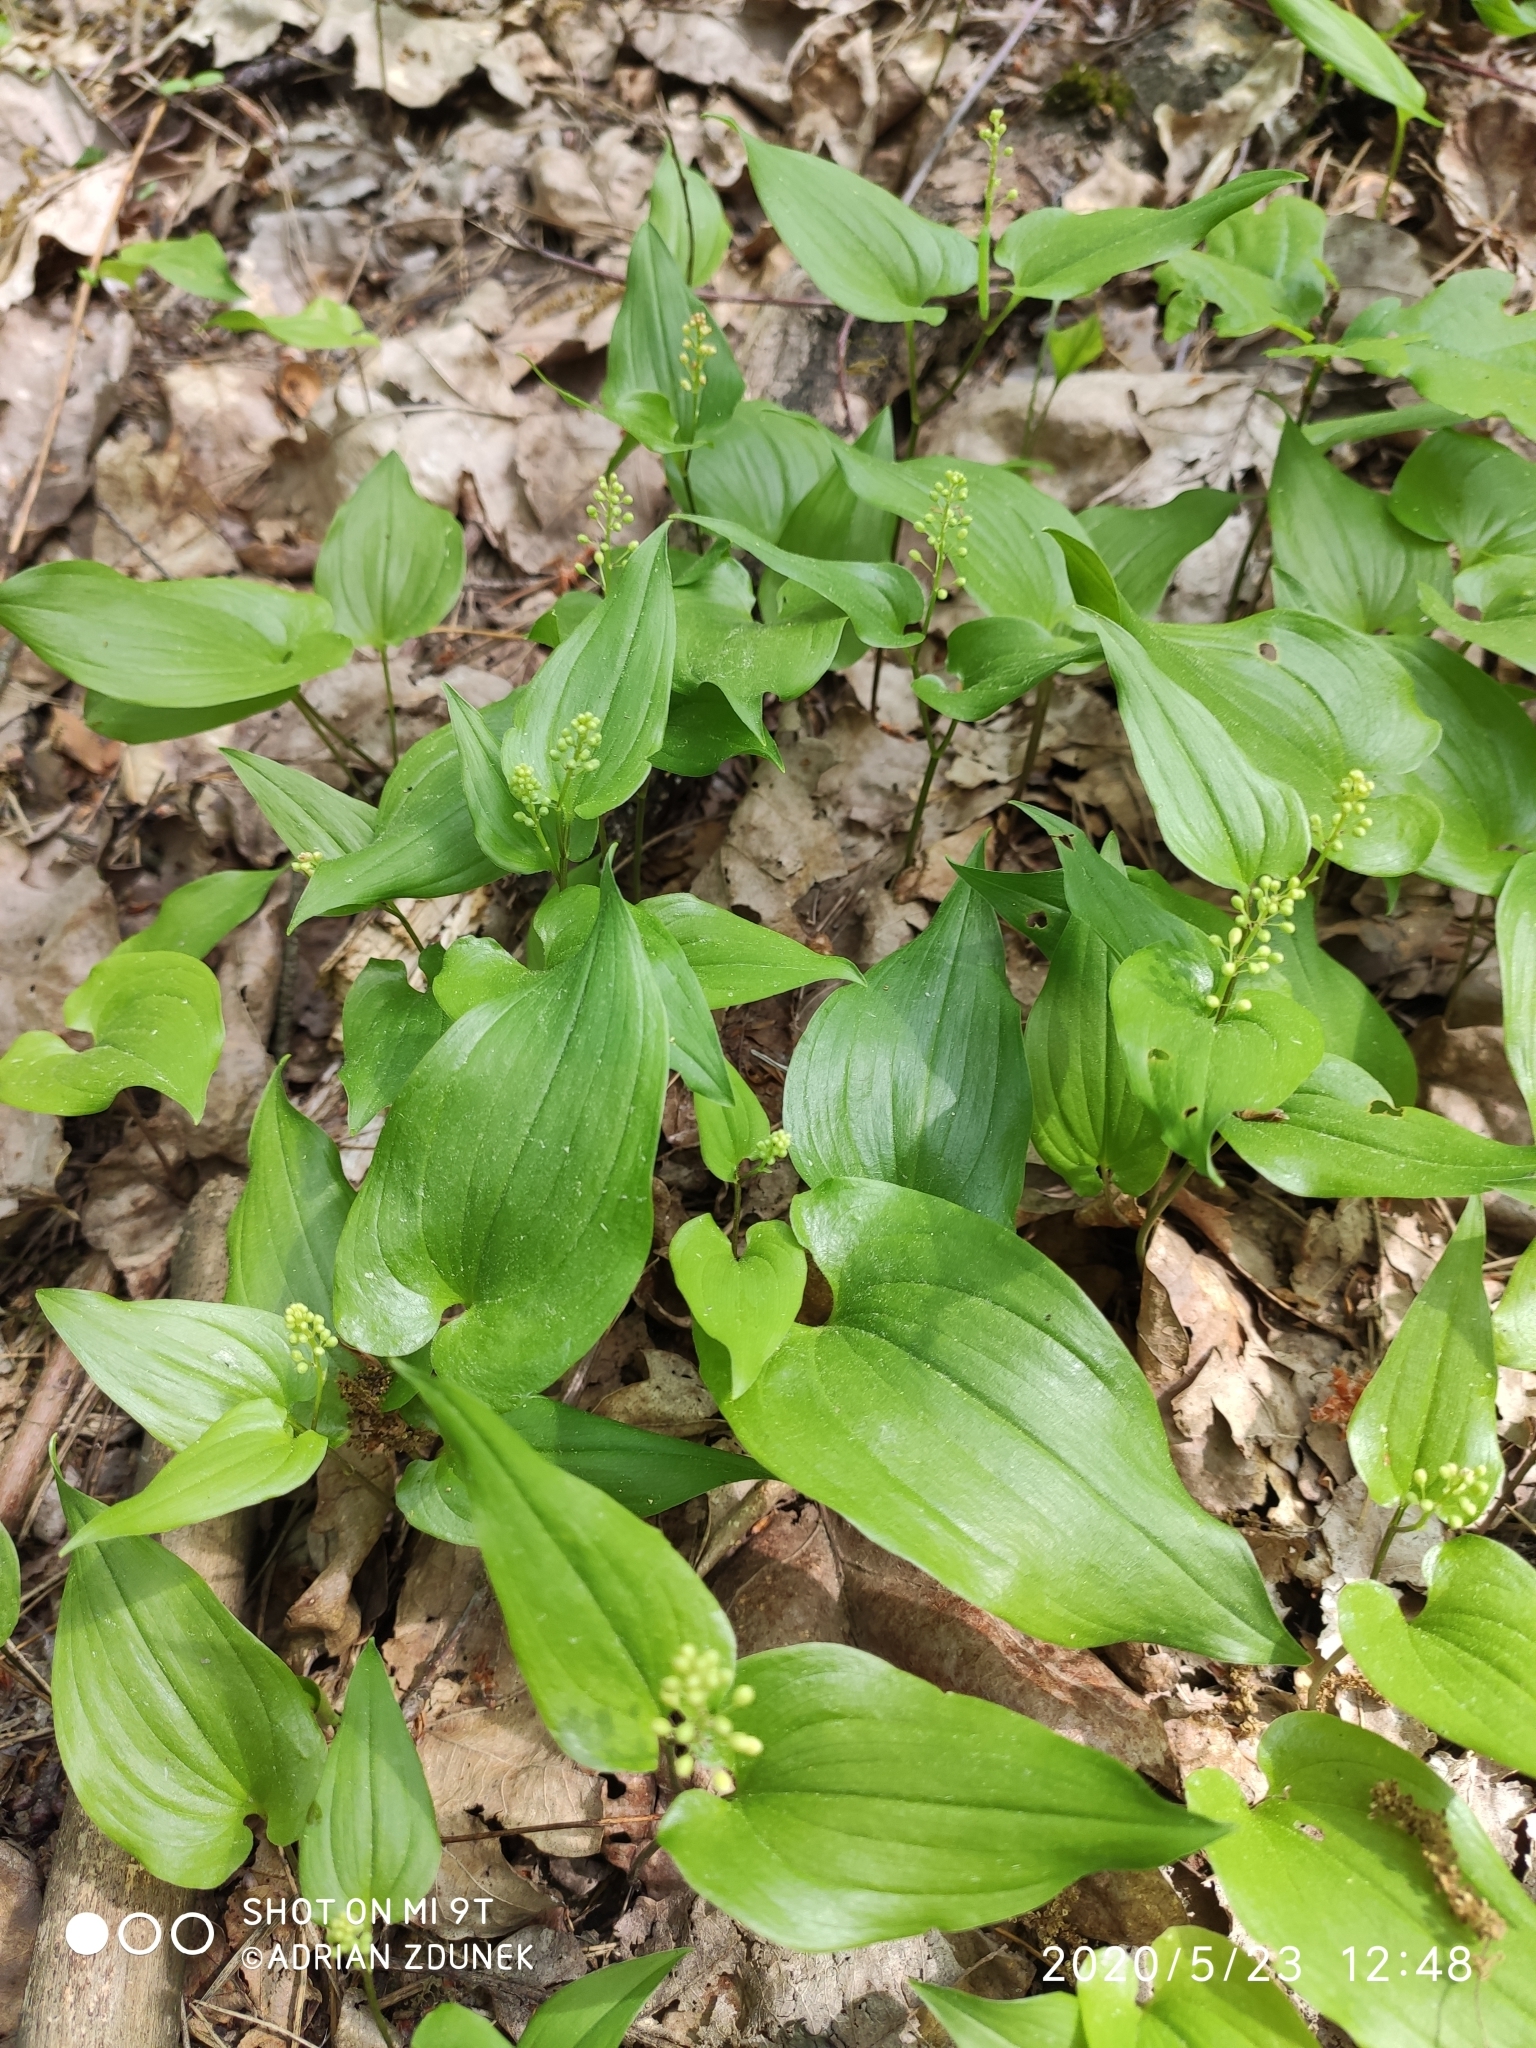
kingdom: Plantae
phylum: Tracheophyta
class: Liliopsida
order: Asparagales
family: Asparagaceae
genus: Maianthemum
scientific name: Maianthemum bifolium
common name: May lily
